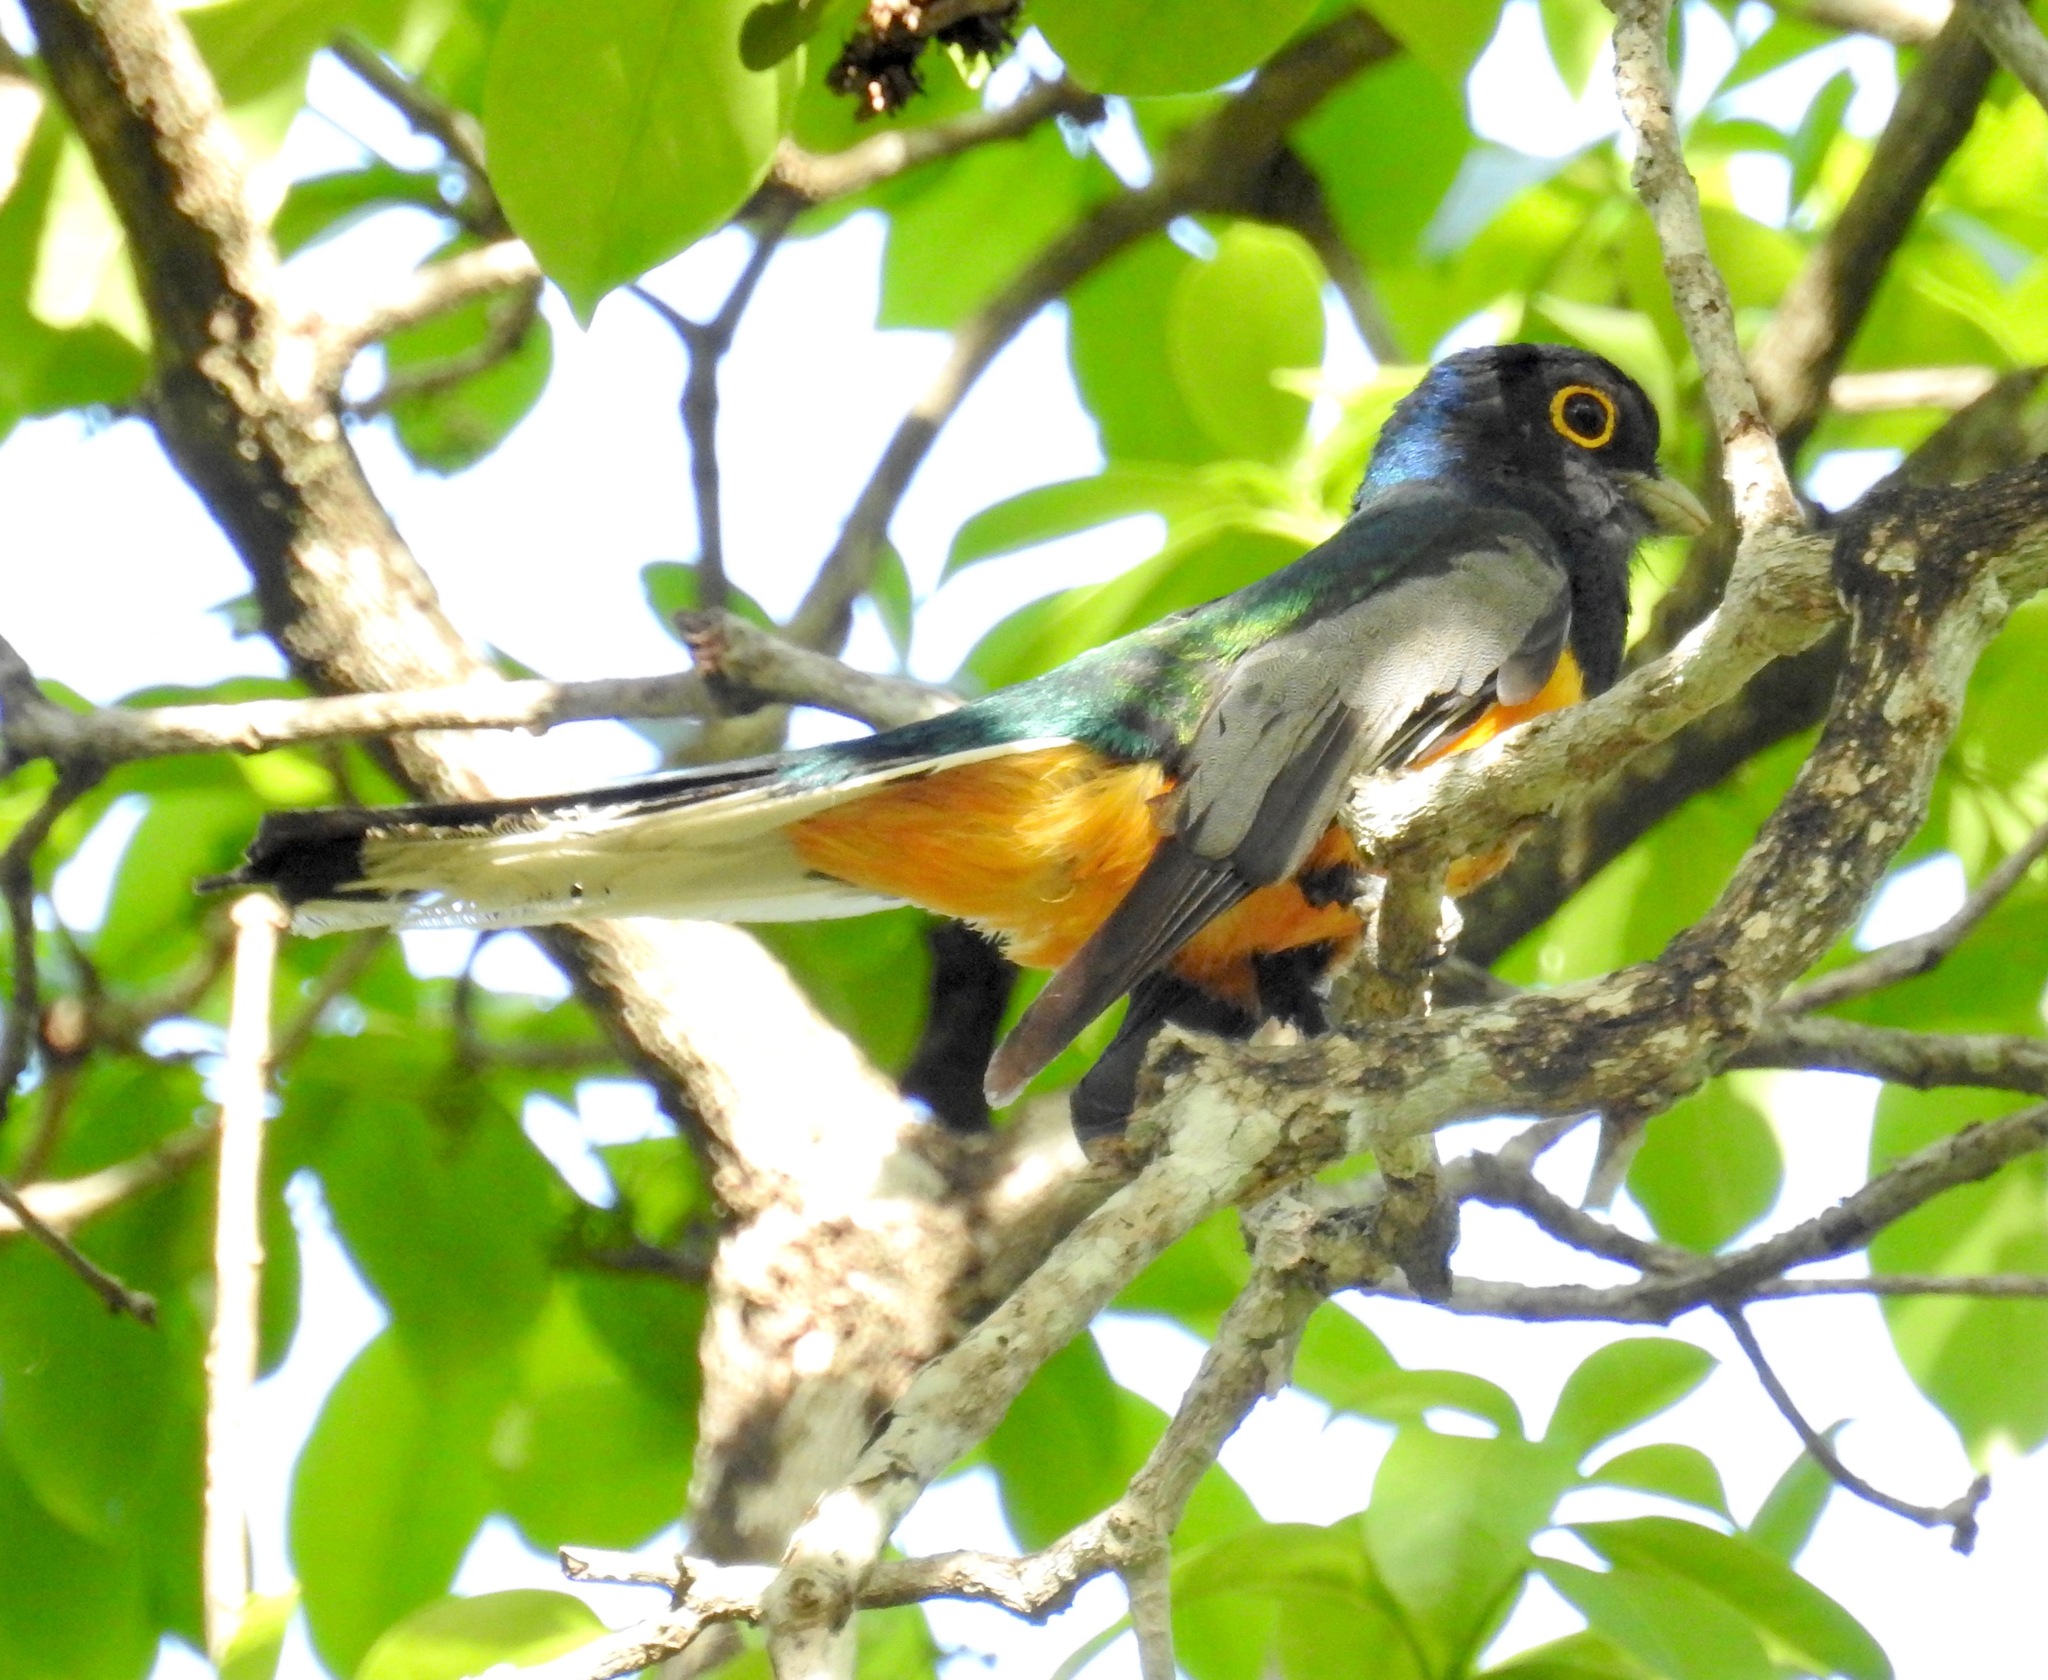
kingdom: Animalia
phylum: Chordata
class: Aves
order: Trogoniformes
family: Trogonidae
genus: Trogon
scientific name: Trogon surrucura
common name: Surucua trogon
